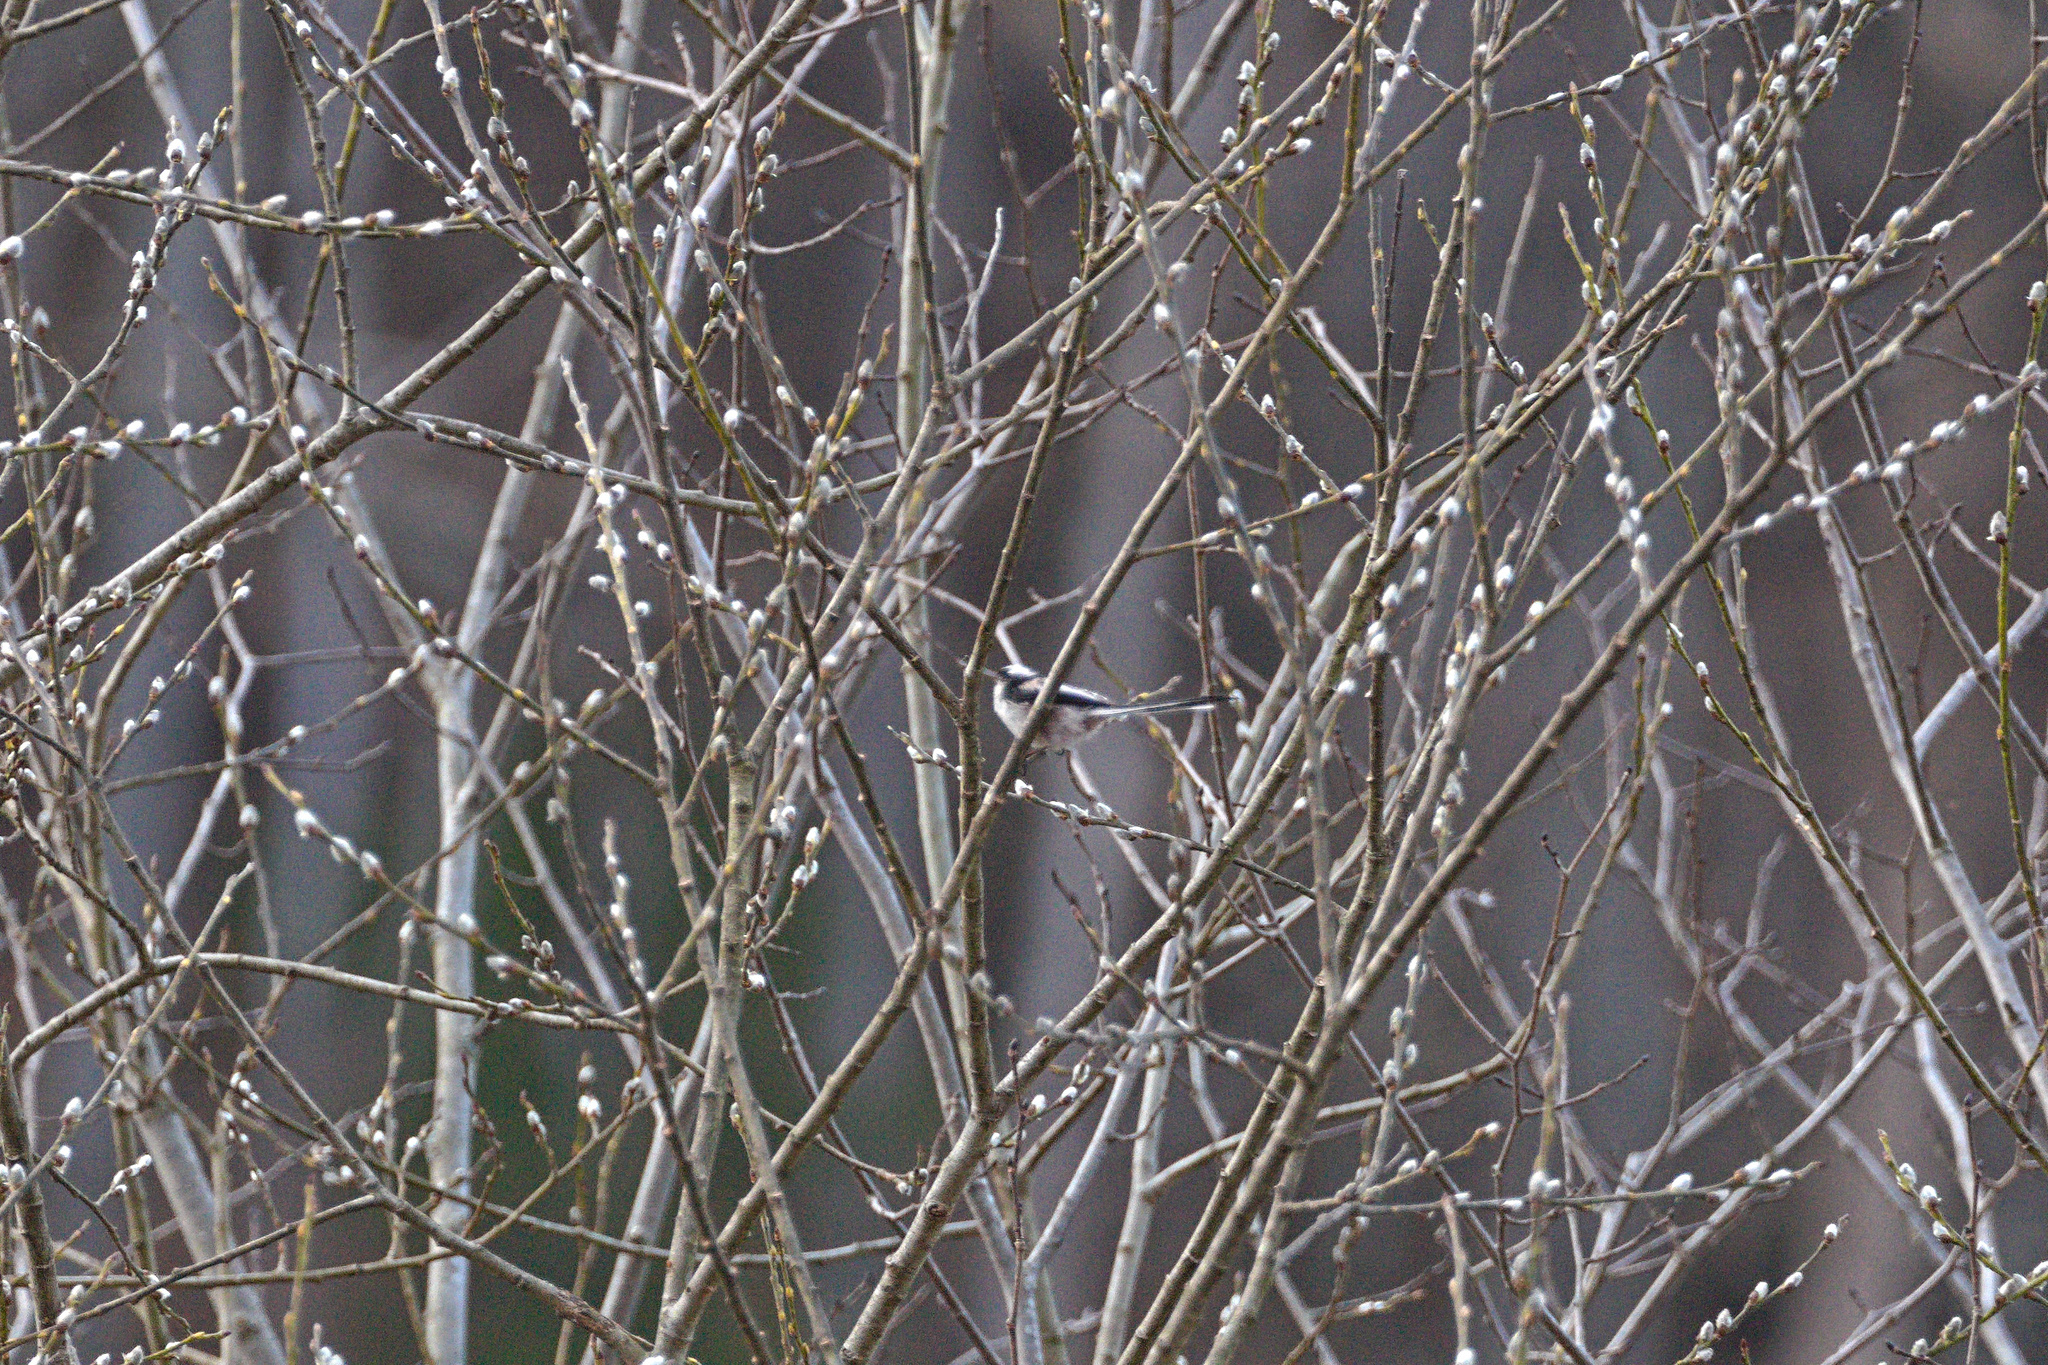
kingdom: Animalia
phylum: Chordata
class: Aves
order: Passeriformes
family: Aegithalidae
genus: Aegithalos
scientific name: Aegithalos caudatus
